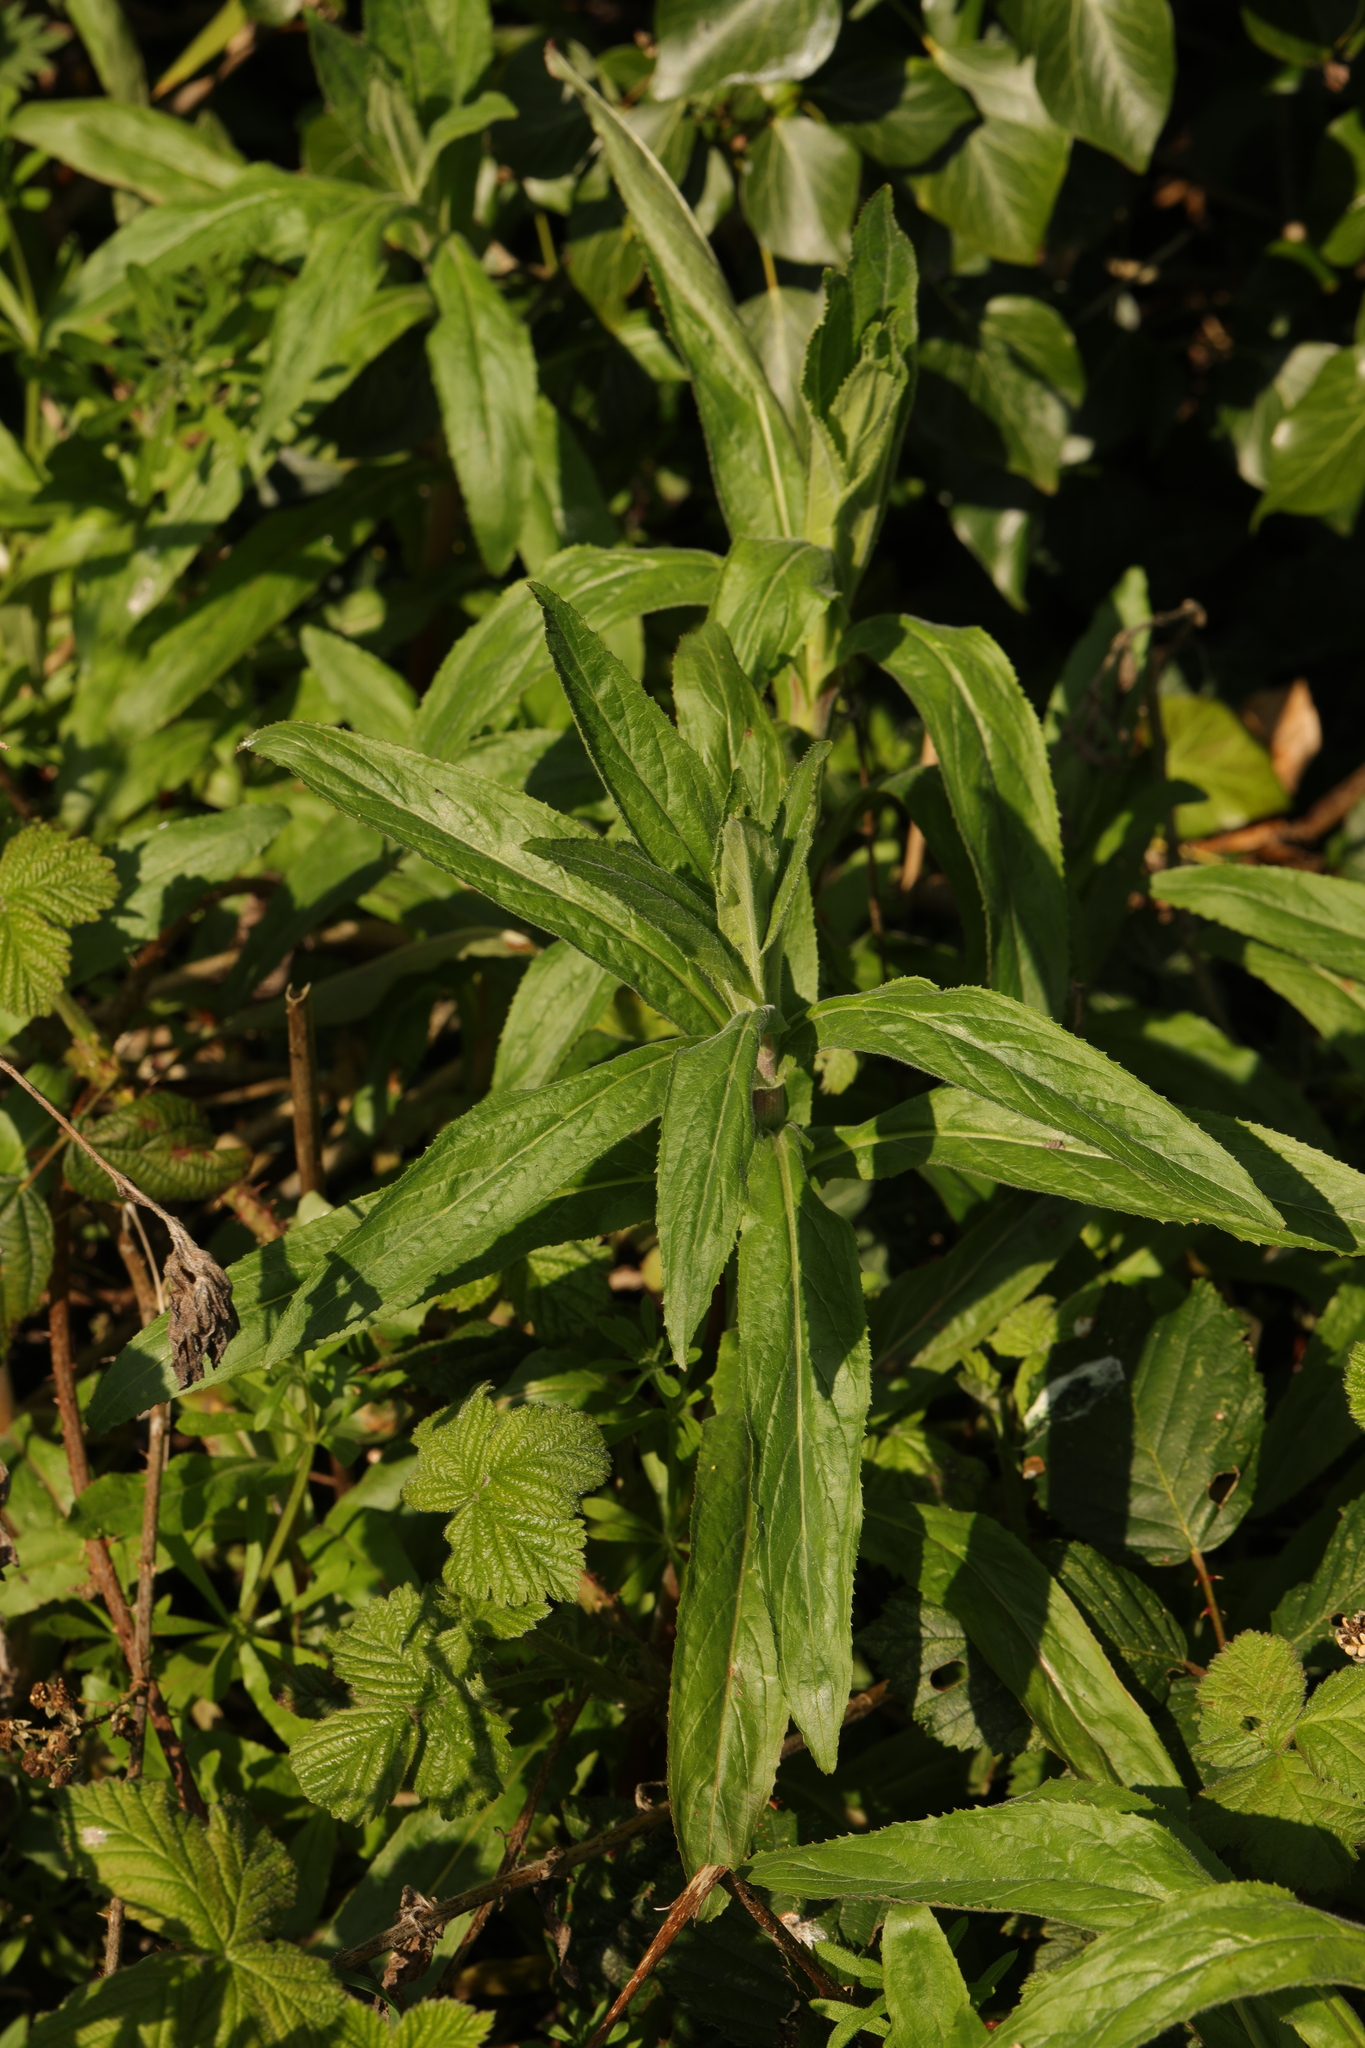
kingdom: Plantae
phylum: Tracheophyta
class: Magnoliopsida
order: Myrtales
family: Onagraceae
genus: Epilobium
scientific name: Epilobium hirsutum
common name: Great willowherb
